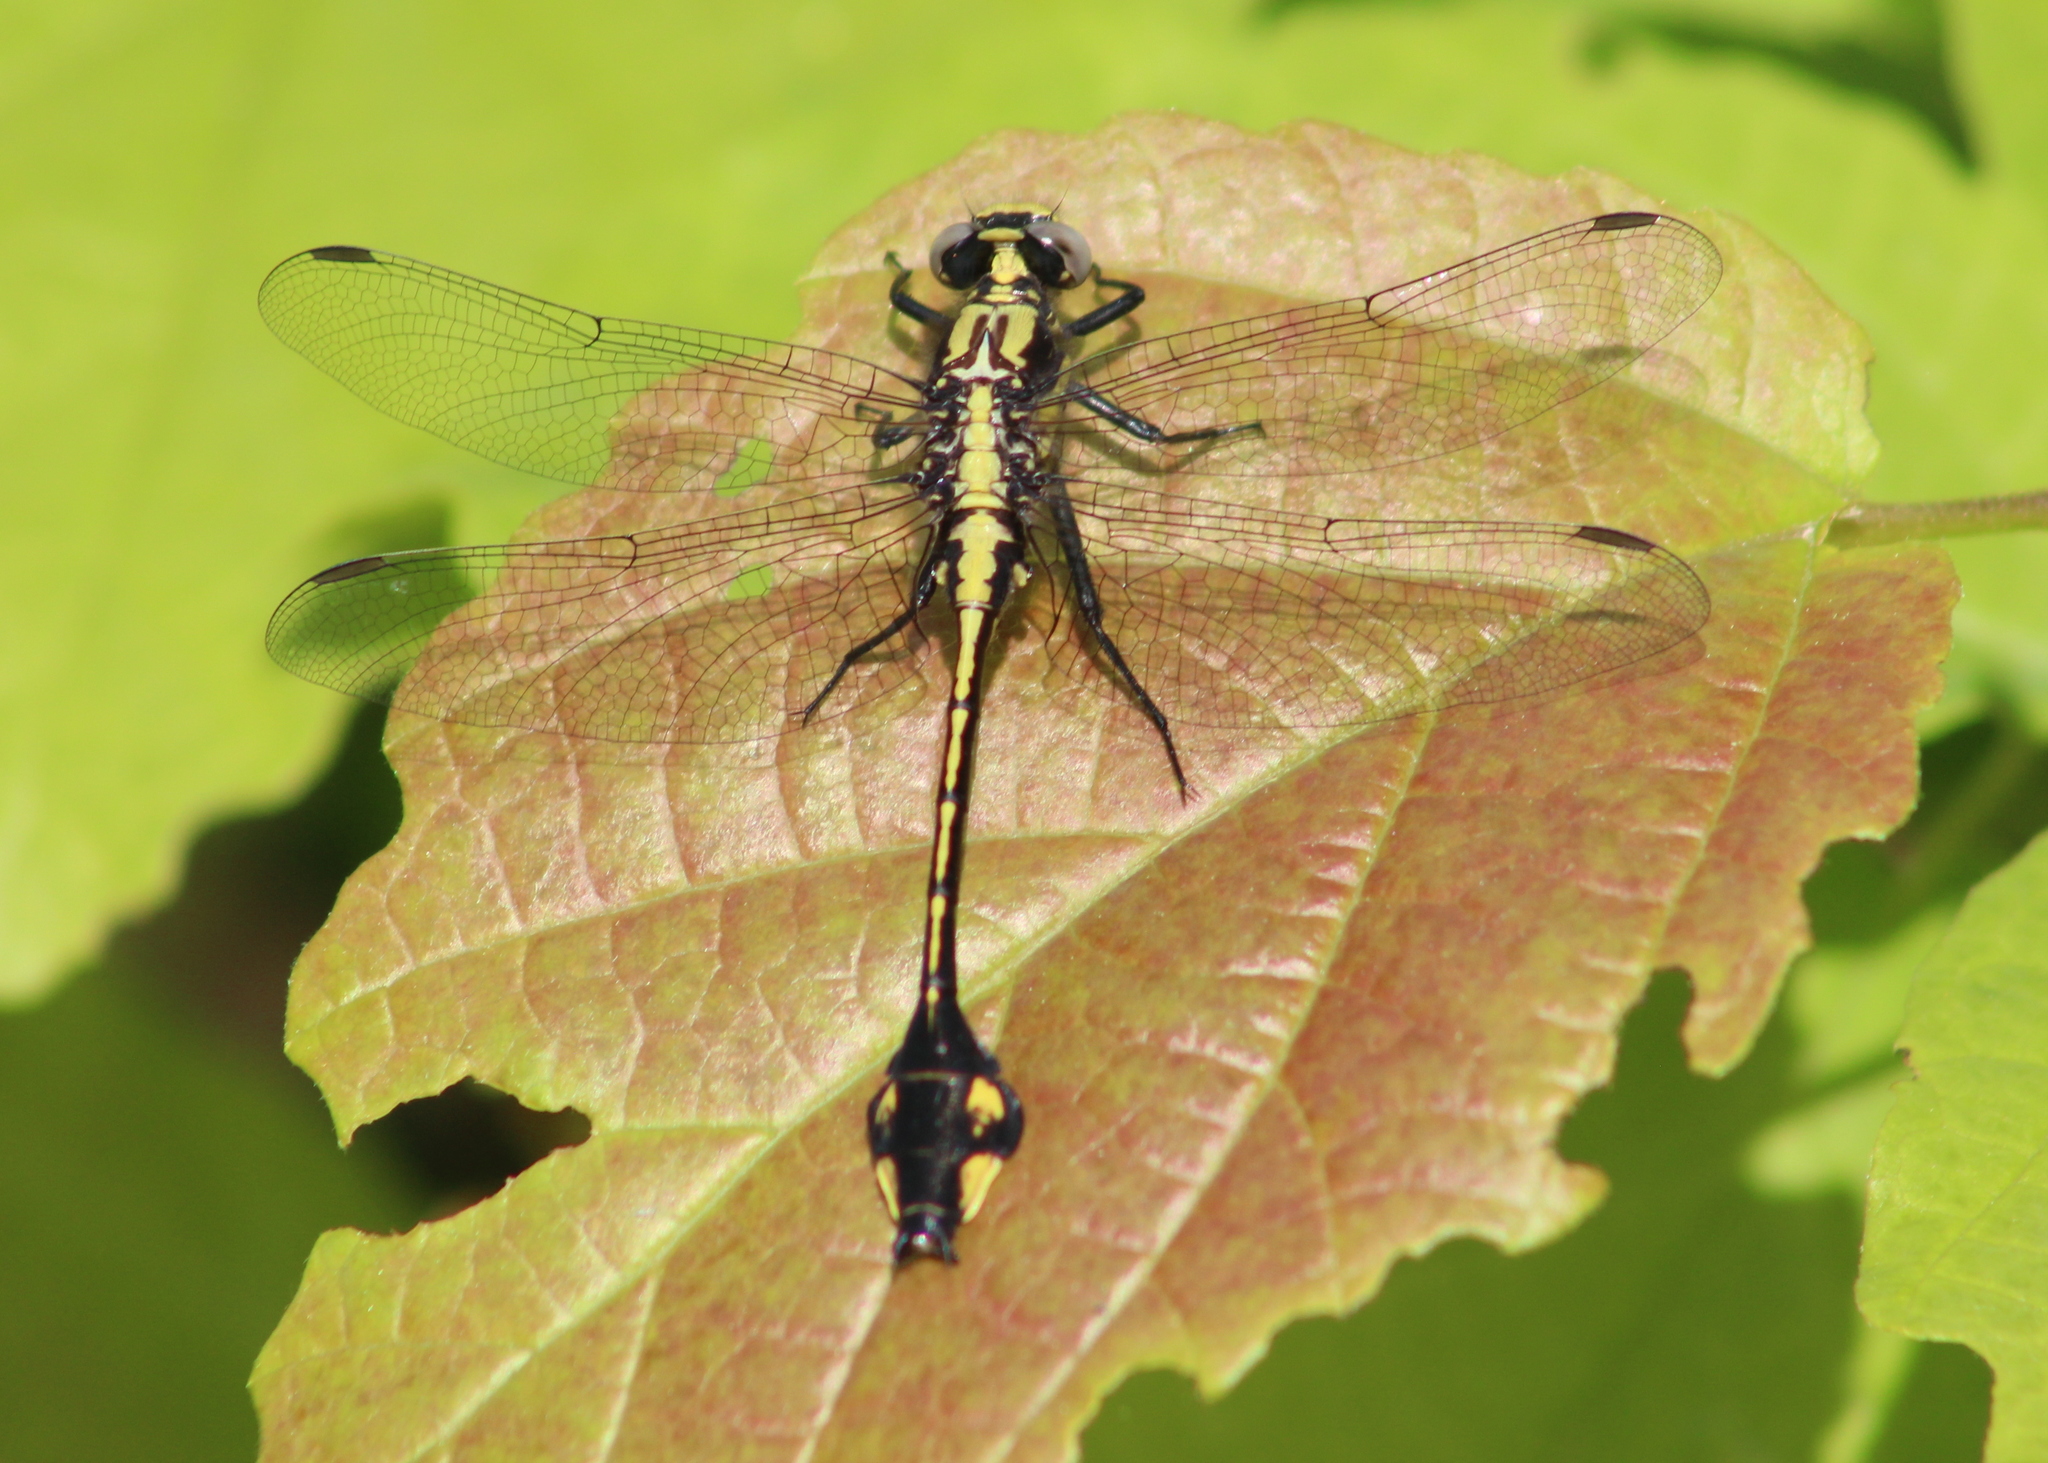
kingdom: Animalia
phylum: Arthropoda
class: Insecta
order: Odonata
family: Gomphidae
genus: Gomphurus
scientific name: Gomphurus ventricosus
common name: Skillet clubtail
